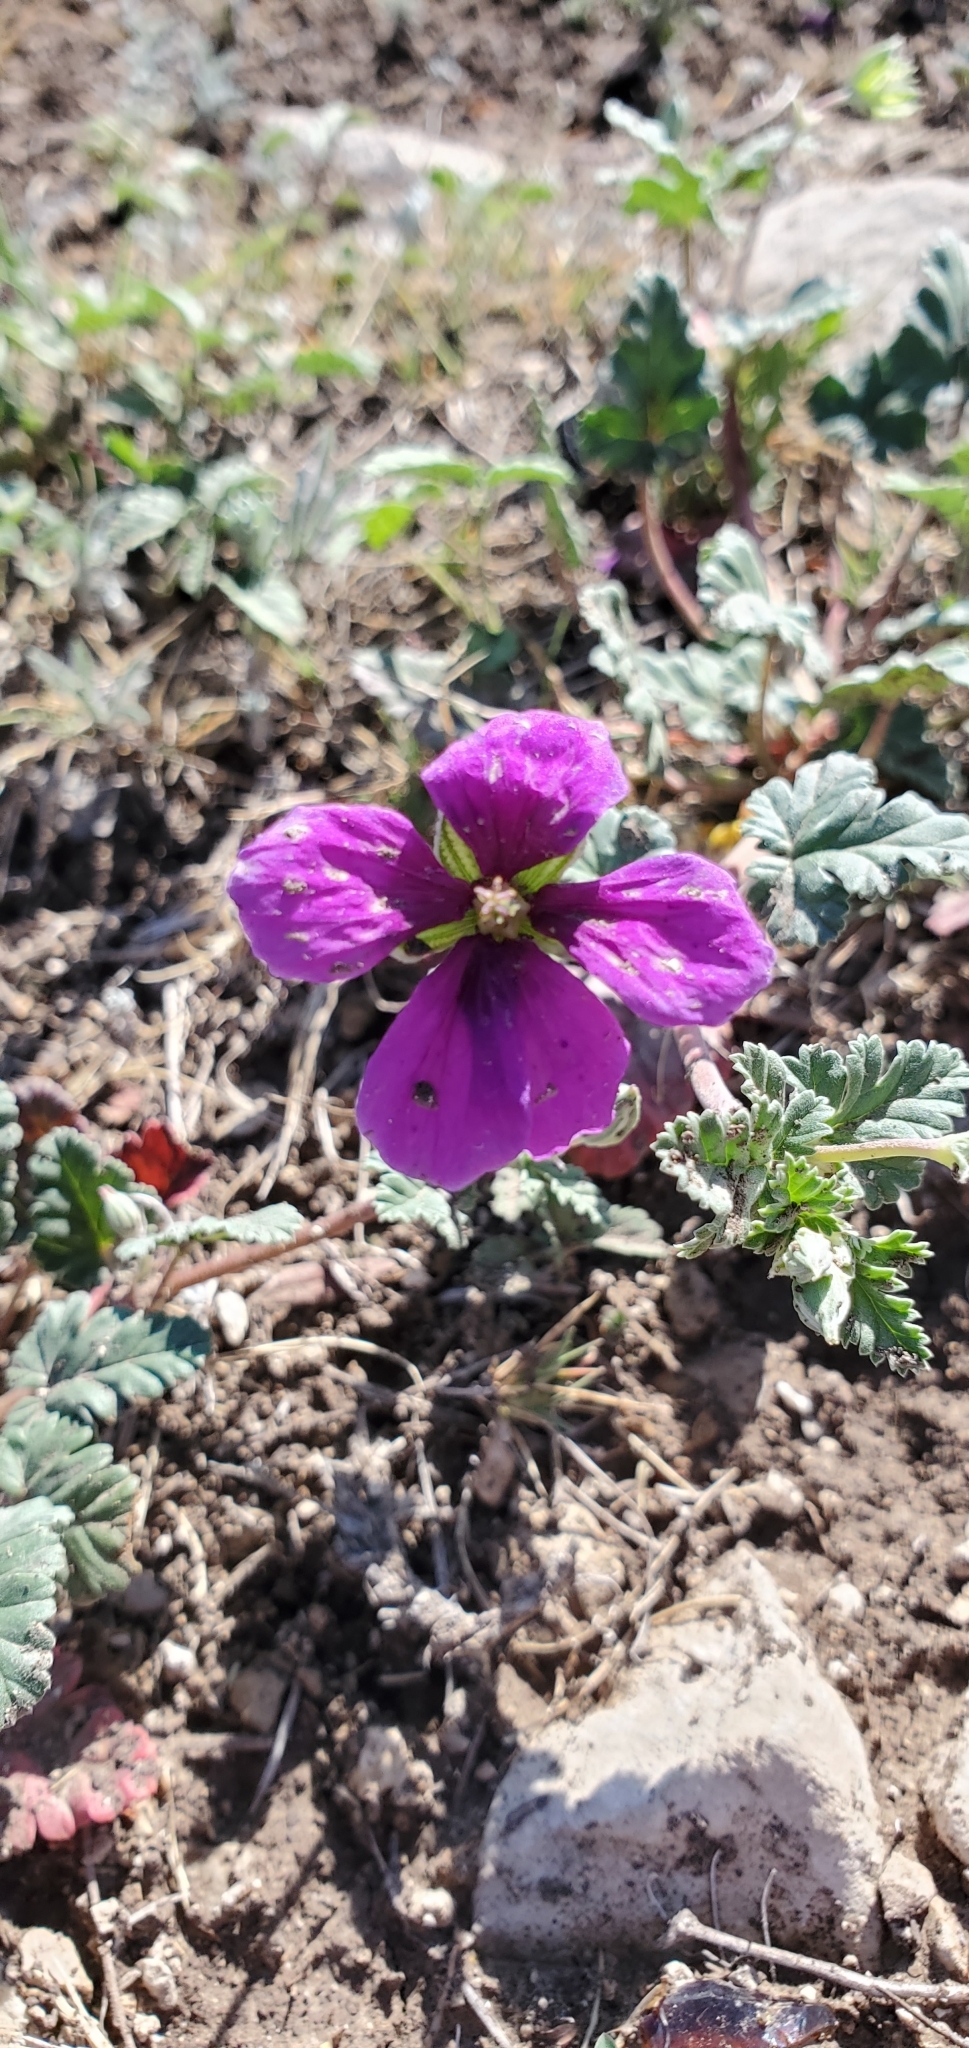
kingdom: Plantae
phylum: Tracheophyta
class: Magnoliopsida
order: Geraniales
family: Geraniaceae
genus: Erodium
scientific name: Erodium texanum
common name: Texas stork's-bill
